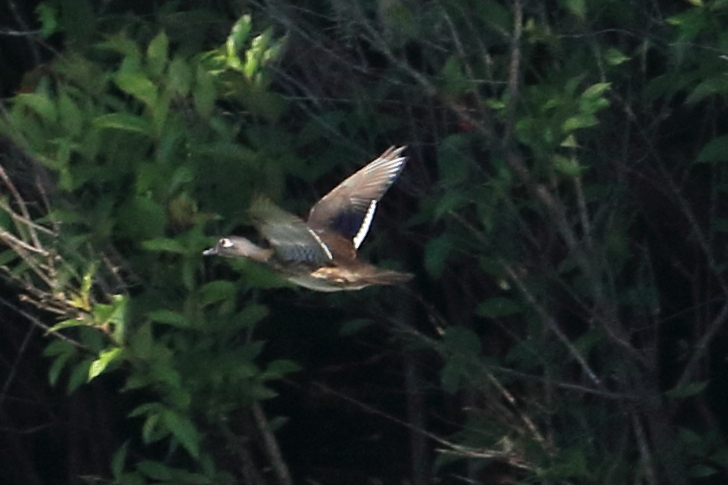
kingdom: Animalia
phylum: Chordata
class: Aves
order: Anseriformes
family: Anatidae
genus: Aix
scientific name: Aix sponsa
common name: Wood duck
